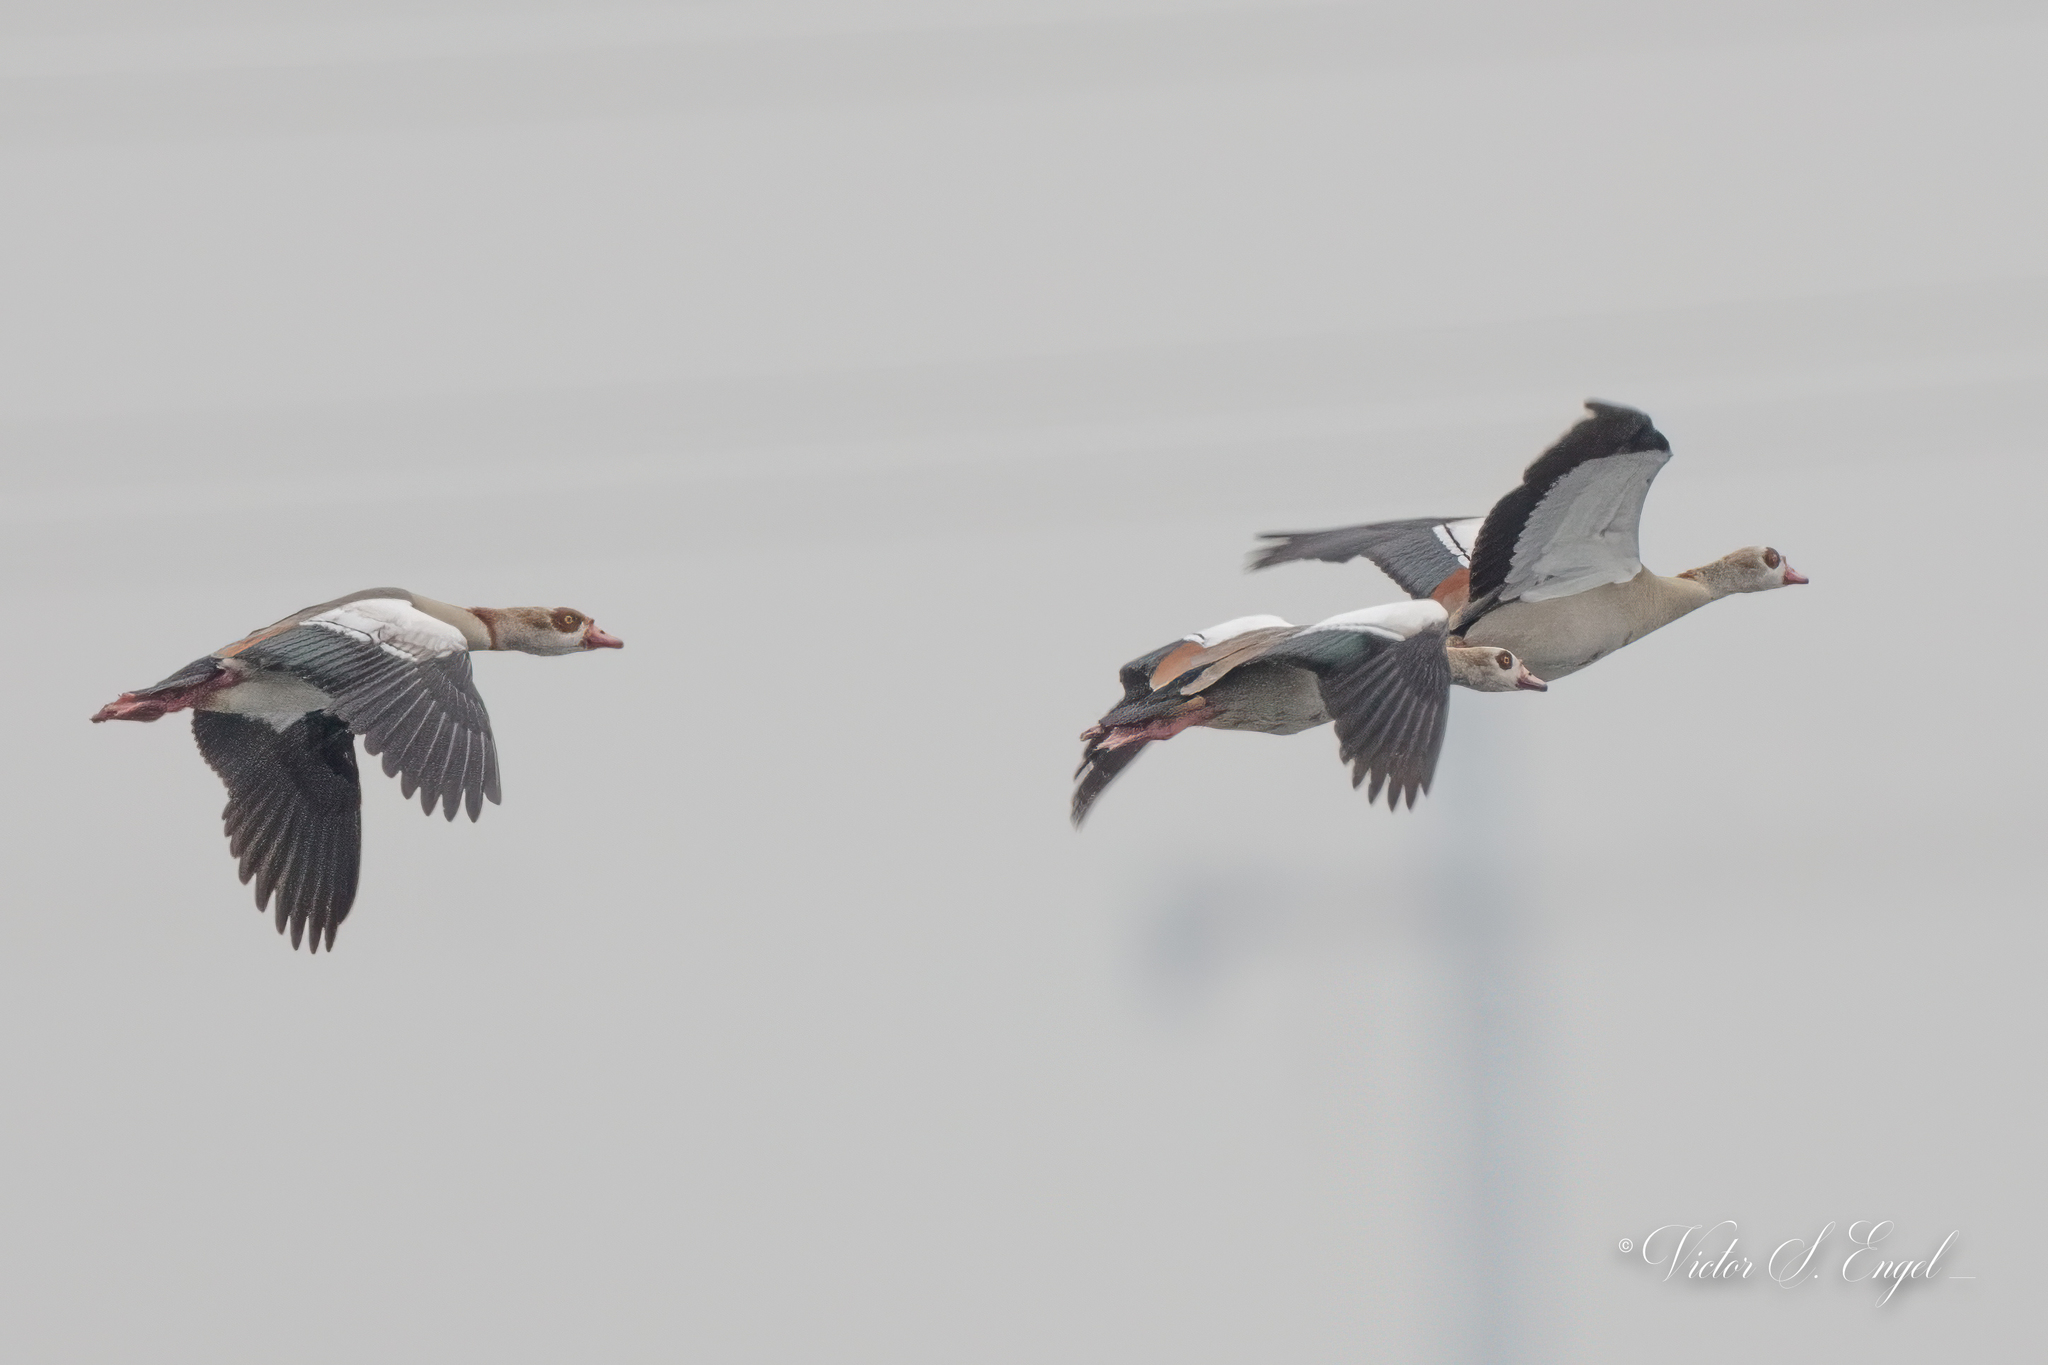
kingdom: Animalia
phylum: Chordata
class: Aves
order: Anseriformes
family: Anatidae
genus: Alopochen
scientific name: Alopochen aegyptiaca
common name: Egyptian goose
